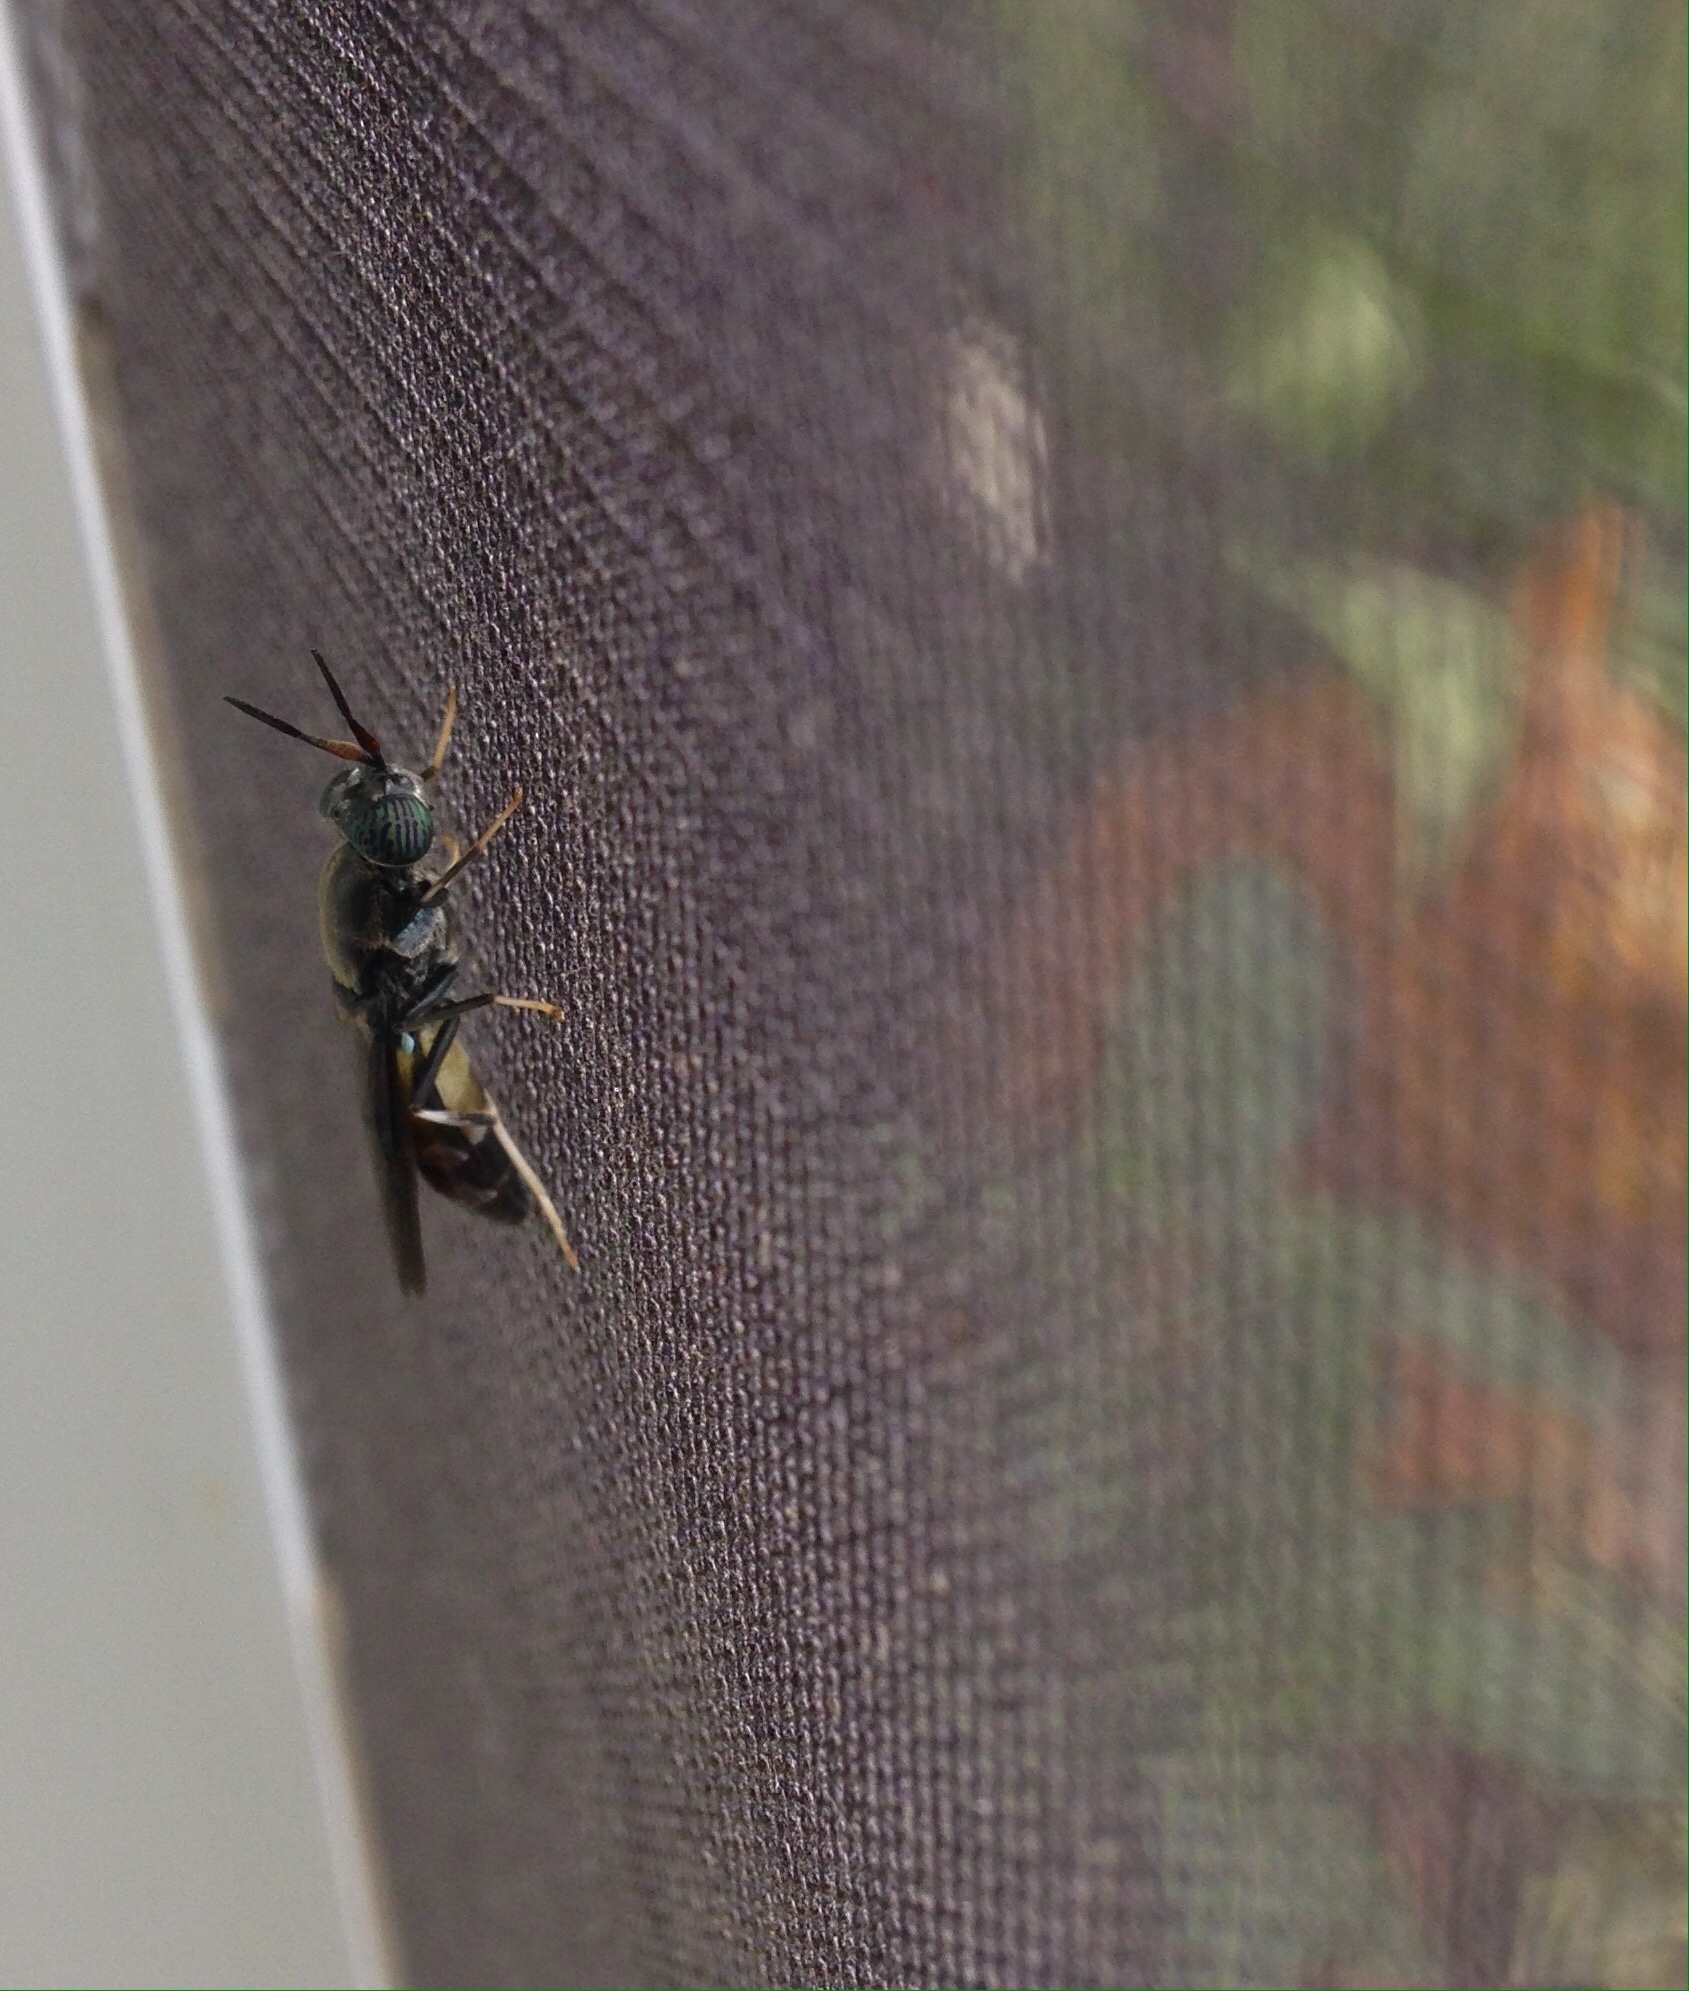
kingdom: Animalia
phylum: Arthropoda
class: Insecta
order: Diptera
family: Stratiomyidae
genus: Hermetia
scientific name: Hermetia illucens
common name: Black soldier fly
